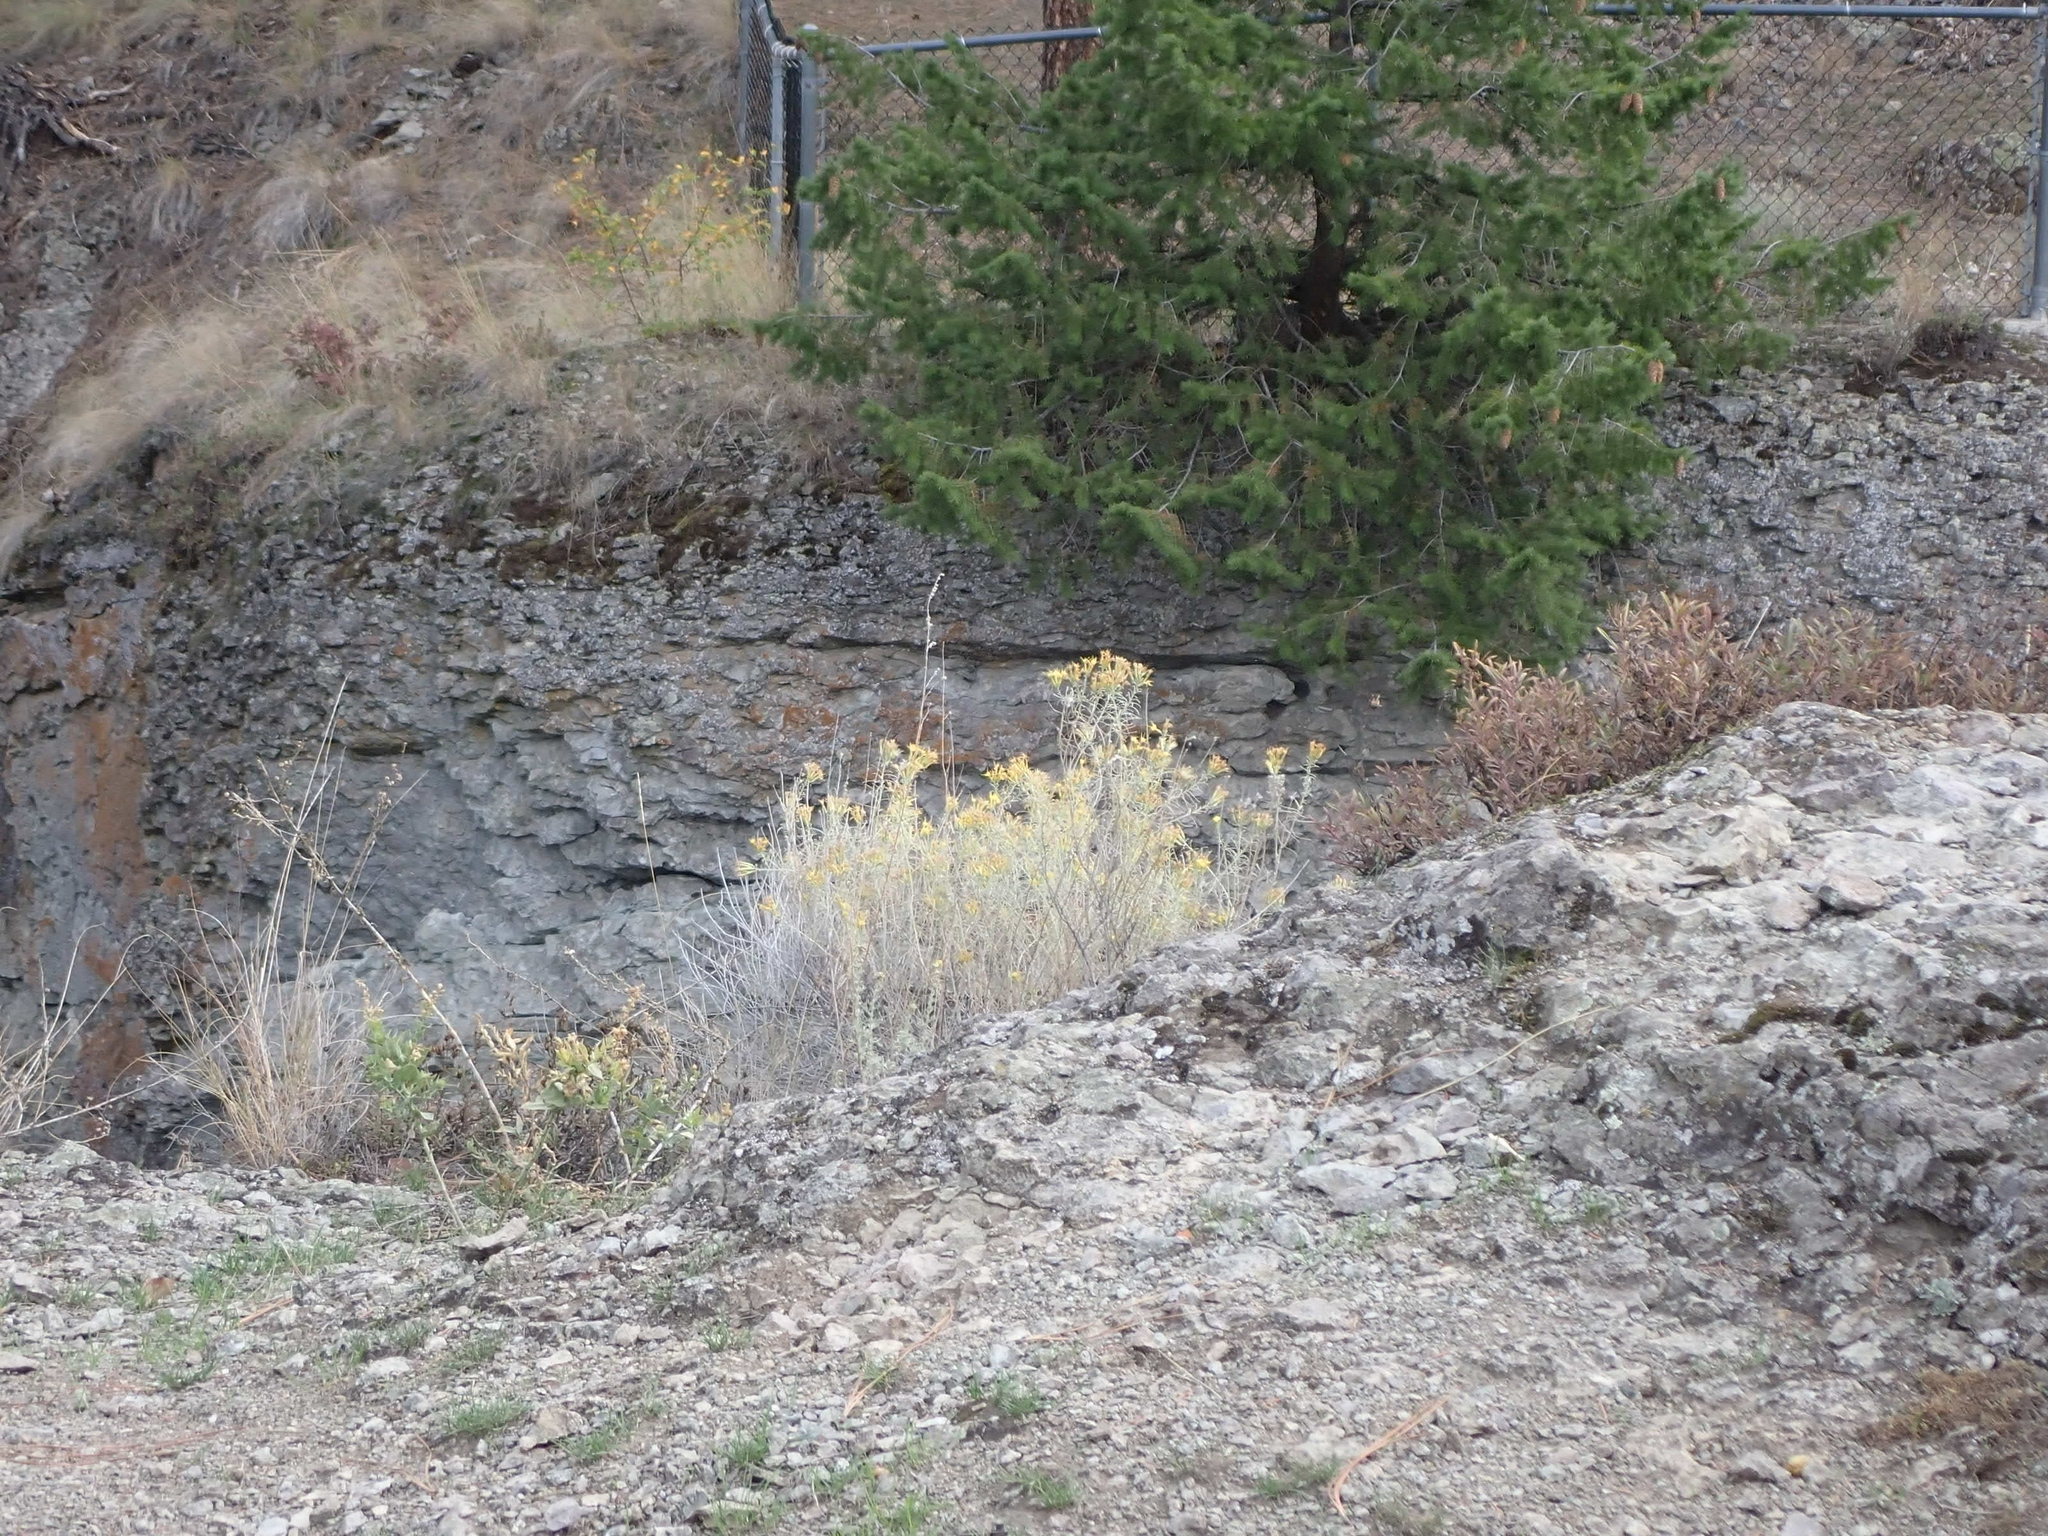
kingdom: Plantae
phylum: Tracheophyta
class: Magnoliopsida
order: Asterales
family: Asteraceae
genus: Ericameria
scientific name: Ericameria nauseosa
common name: Rubber rabbitbrush
